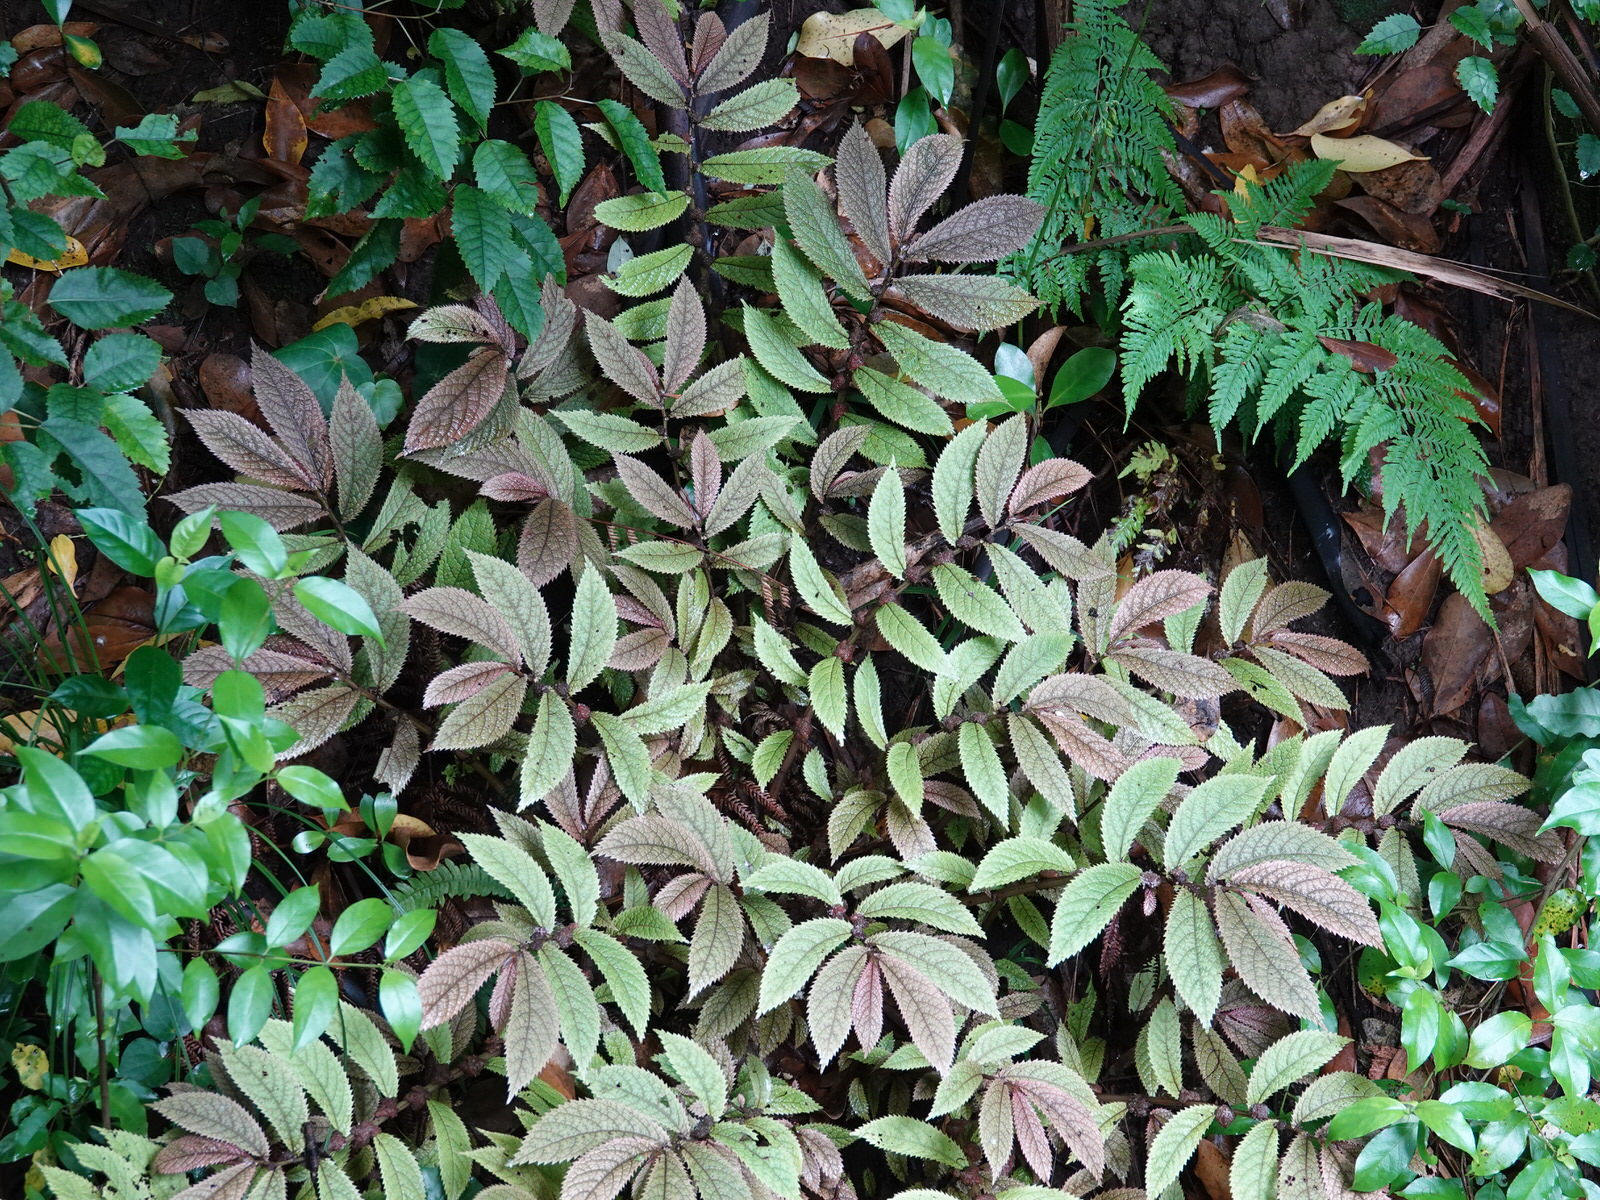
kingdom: Plantae
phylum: Tracheophyta
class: Magnoliopsida
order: Rosales
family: Urticaceae
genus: Elatostema
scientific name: Elatostema rugosum
